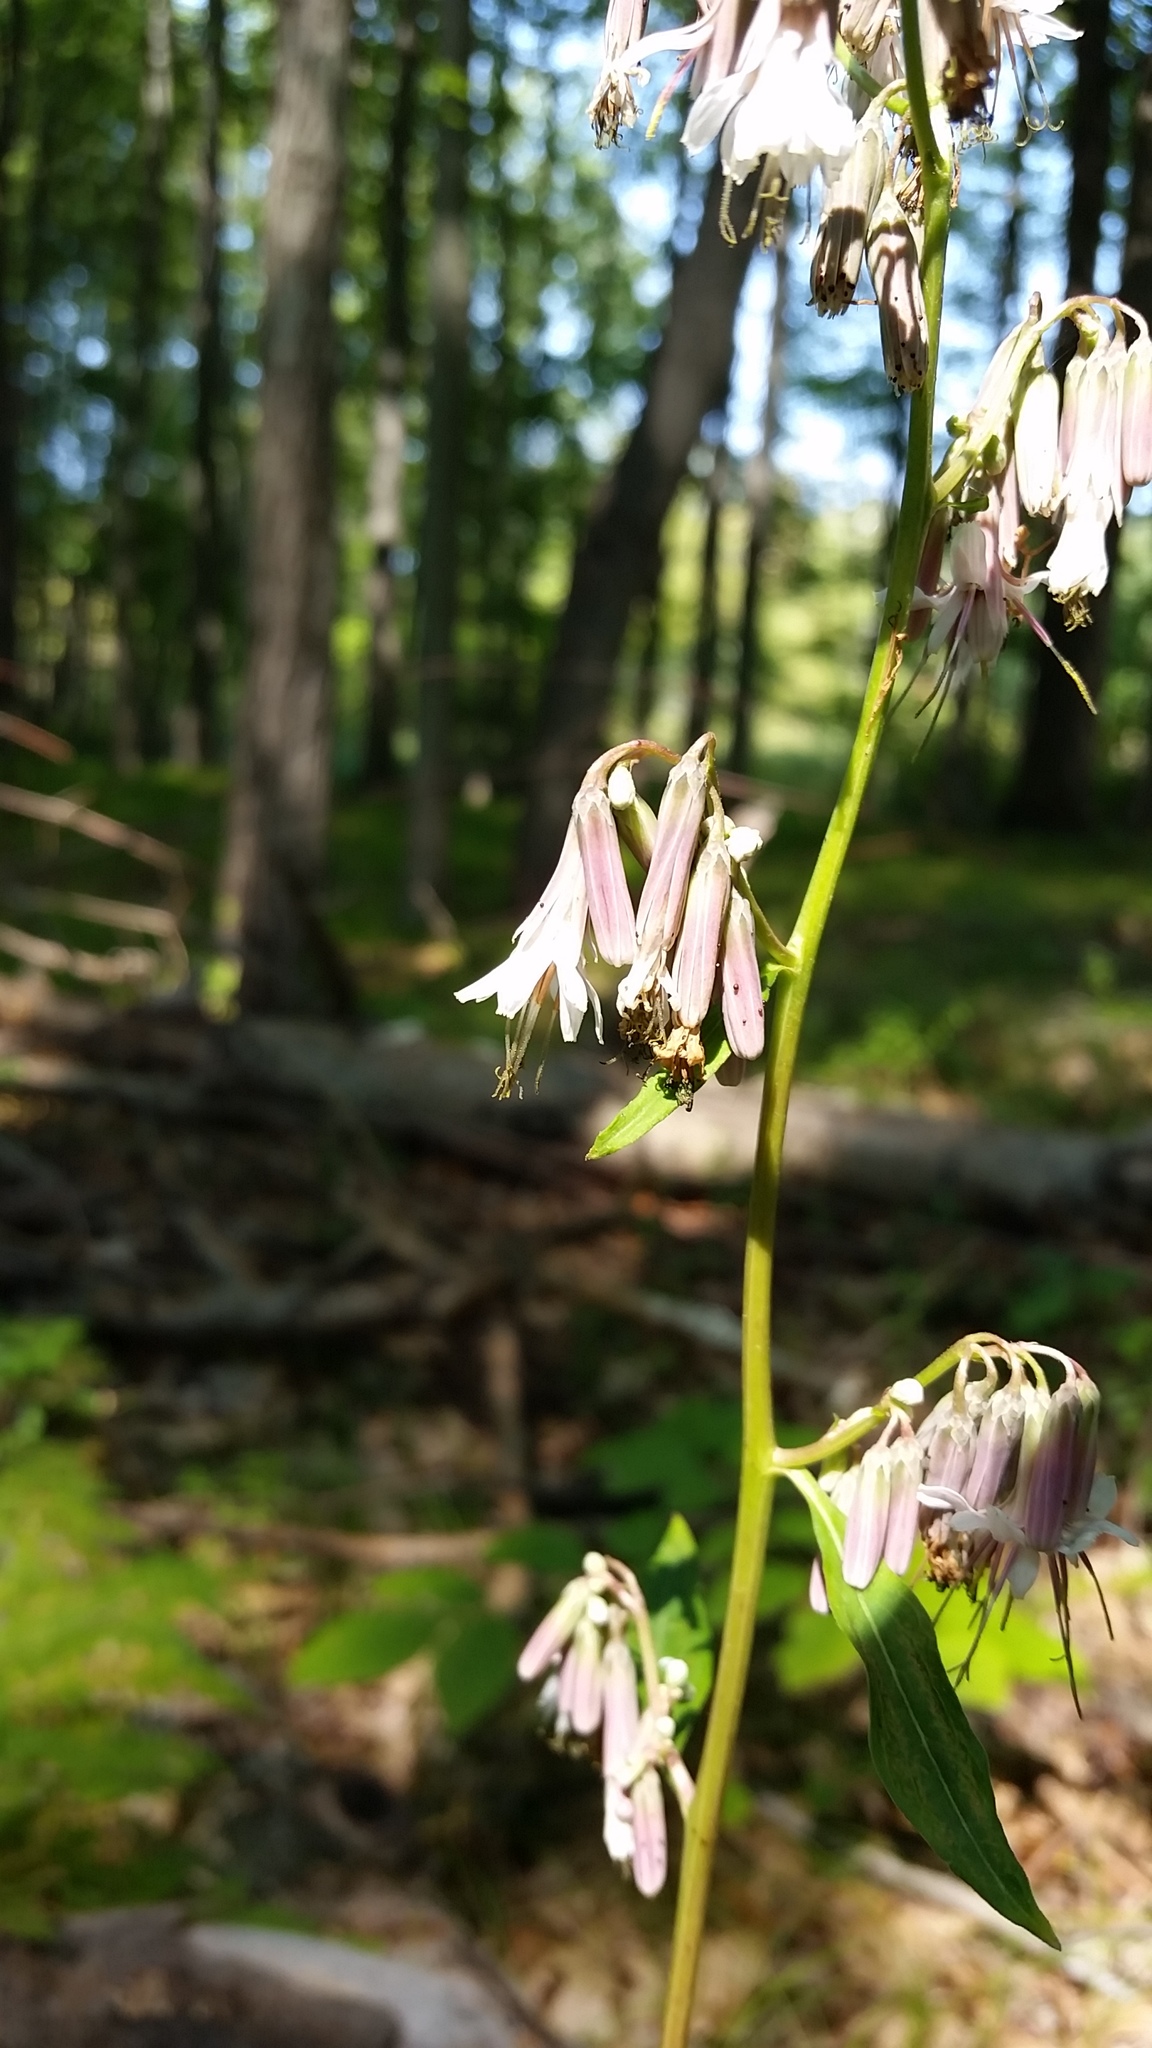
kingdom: Plantae
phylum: Tracheophyta
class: Magnoliopsida
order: Asterales
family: Asteraceae
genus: Nabalus
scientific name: Nabalus albus
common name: White rattlesnakeroot
